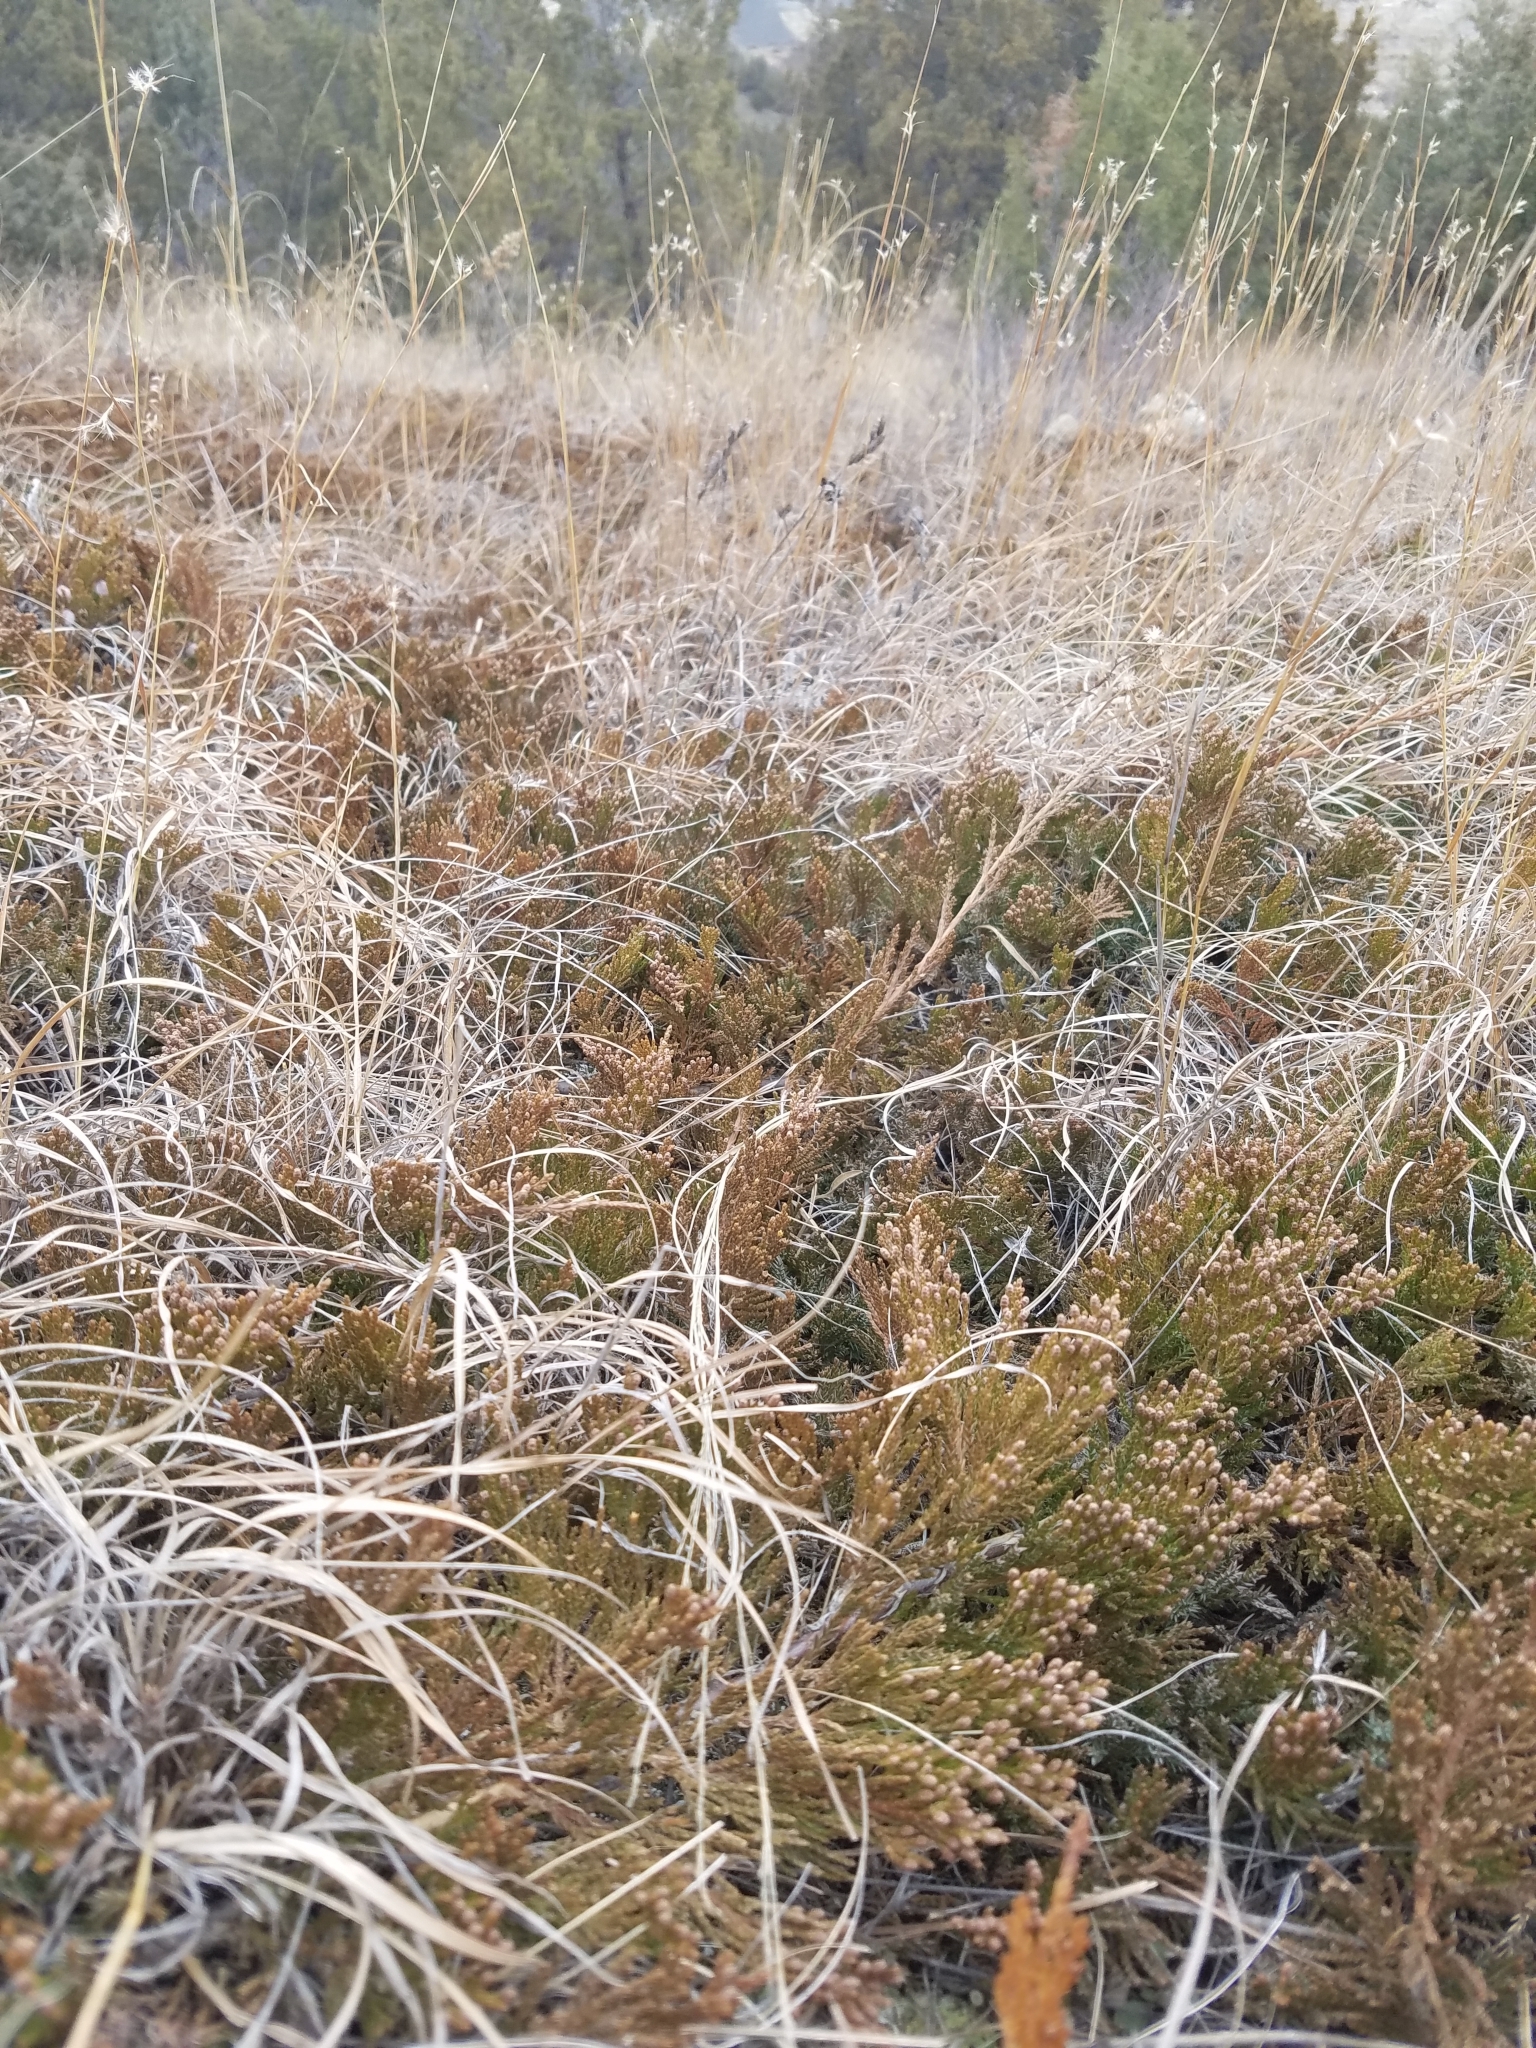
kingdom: Plantae
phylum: Tracheophyta
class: Pinopsida
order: Pinales
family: Cupressaceae
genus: Juniperus
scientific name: Juniperus horizontalis
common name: Creeping juniper
